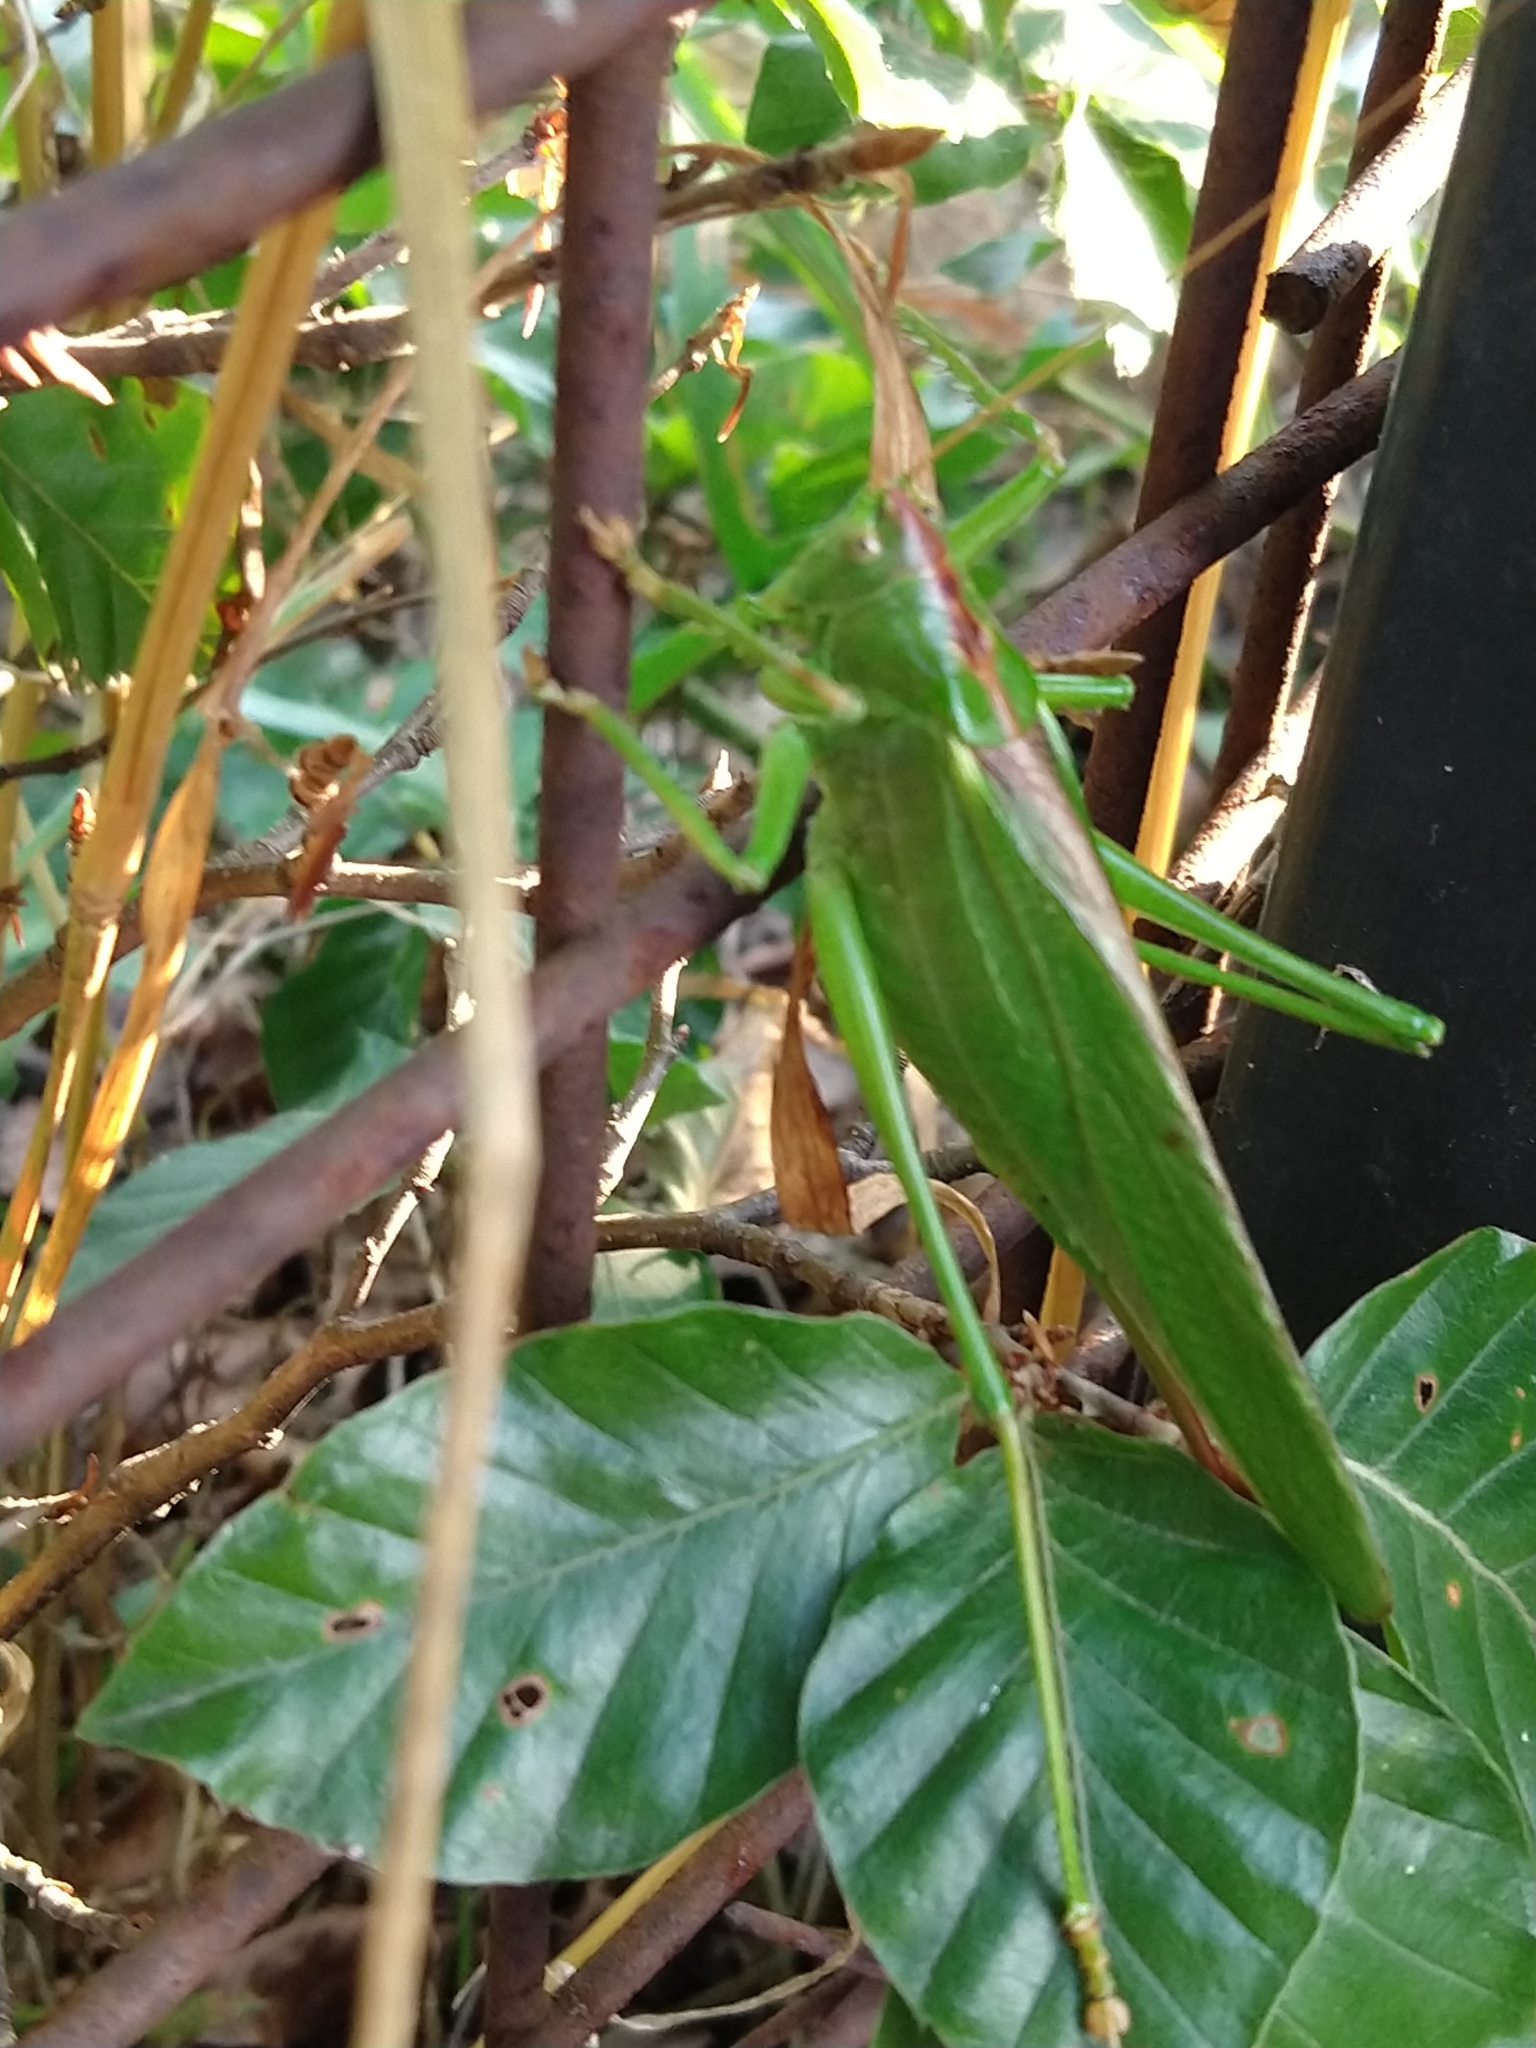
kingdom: Animalia
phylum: Arthropoda
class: Insecta
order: Orthoptera
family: Tettigoniidae
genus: Tettigonia
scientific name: Tettigonia viridissima
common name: Great green bush-cricket
